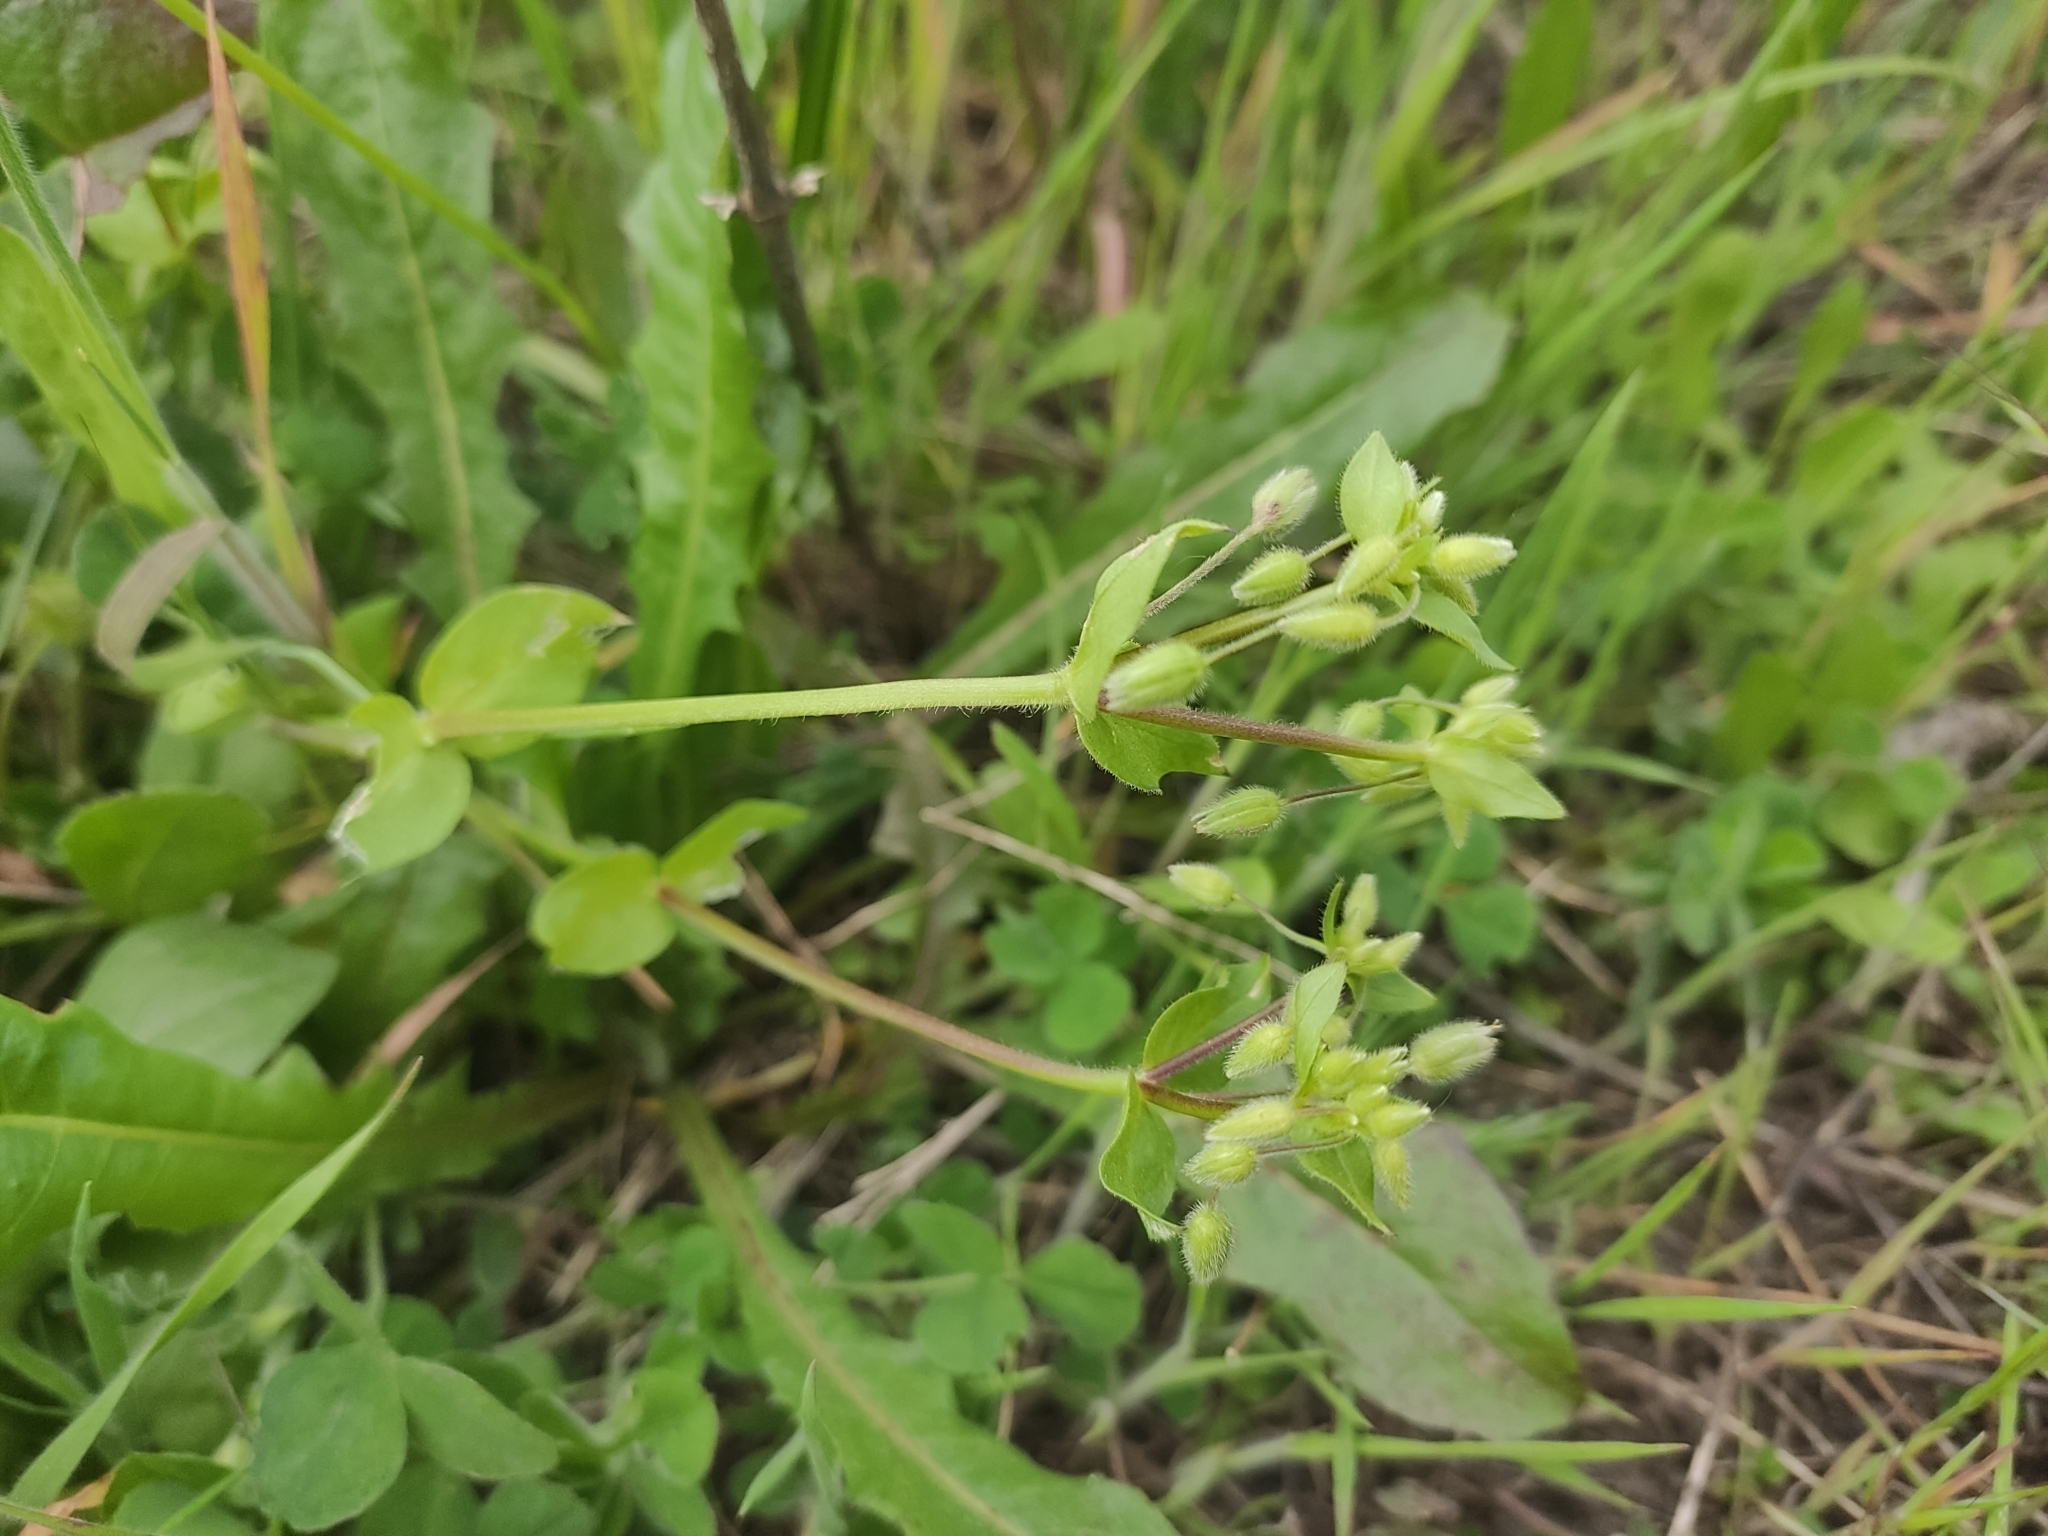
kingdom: Plantae
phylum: Tracheophyta
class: Magnoliopsida
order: Caryophyllales
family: Caryophyllaceae
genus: Stellaria
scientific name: Stellaria media
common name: Common chickweed
